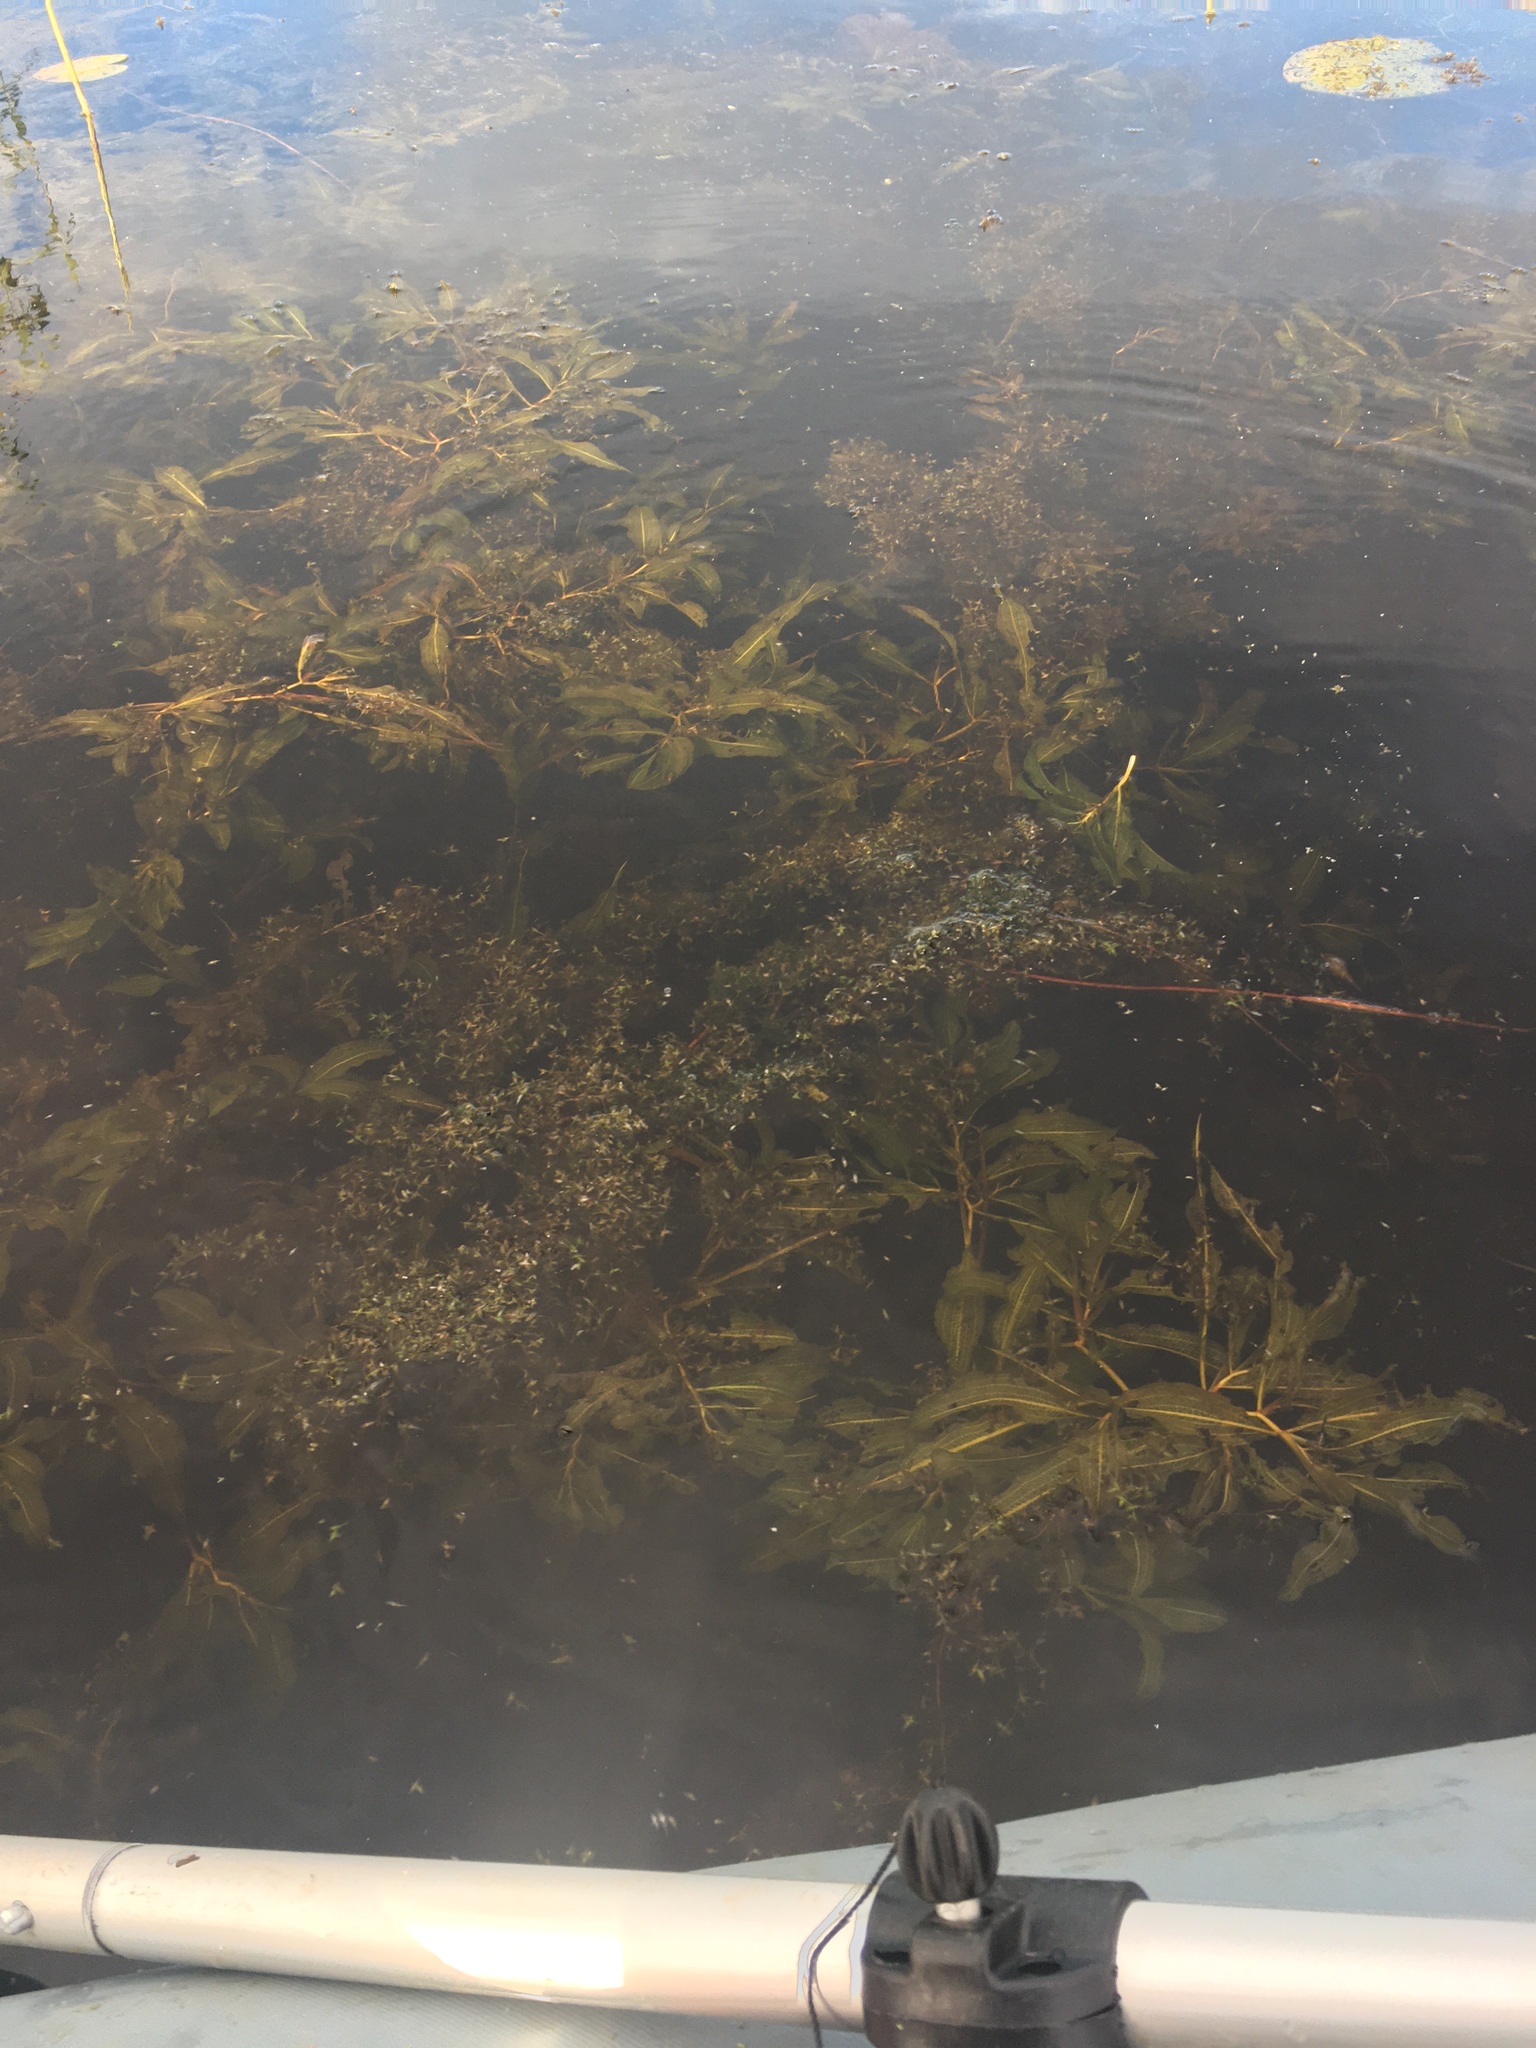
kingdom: Plantae
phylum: Tracheophyta
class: Liliopsida
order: Alismatales
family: Potamogetonaceae
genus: Potamogeton
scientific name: Potamogeton lucens
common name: Shining pondweed
